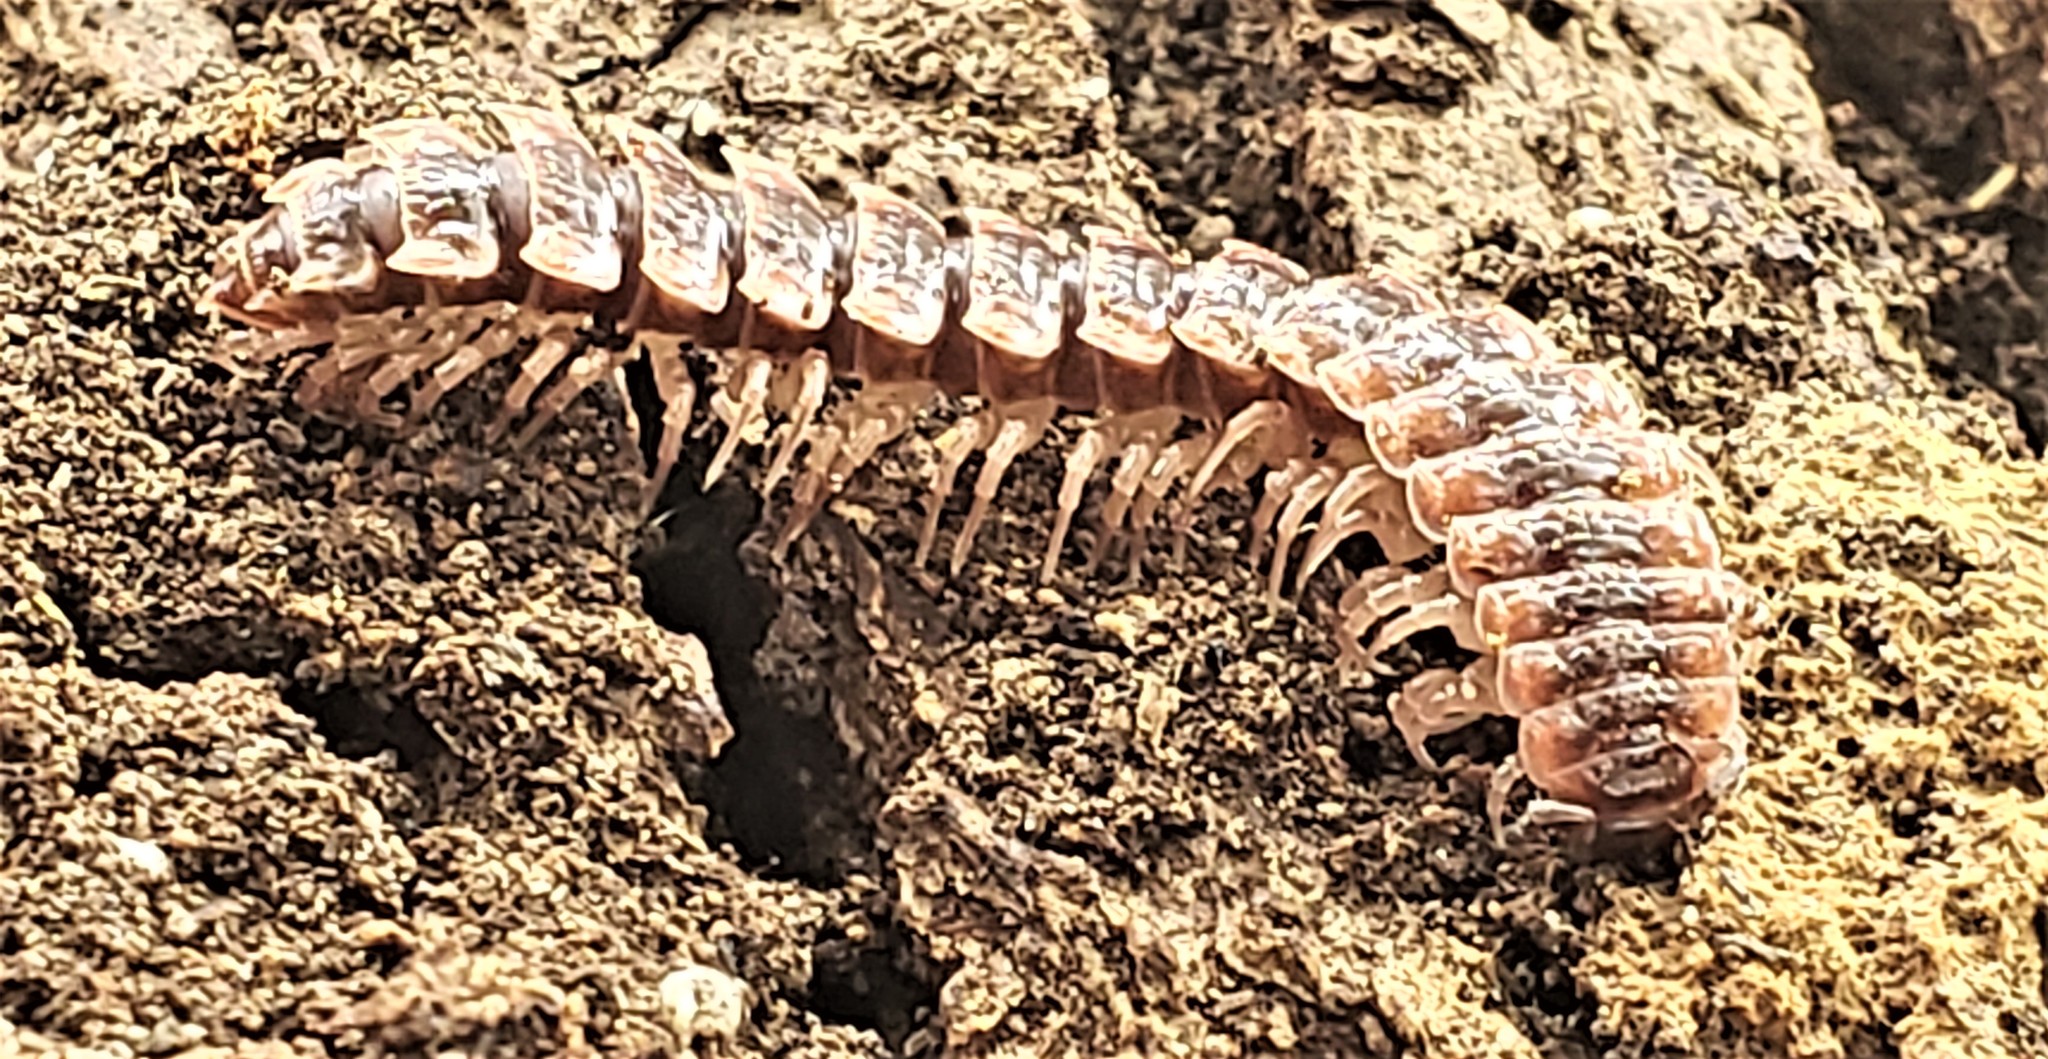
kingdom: Animalia
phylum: Arthropoda
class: Diplopoda
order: Polydesmida
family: Polydesmidae
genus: Pseudopolydesmus
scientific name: Pseudopolydesmus canadensis
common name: Canadian flat-back millipede
